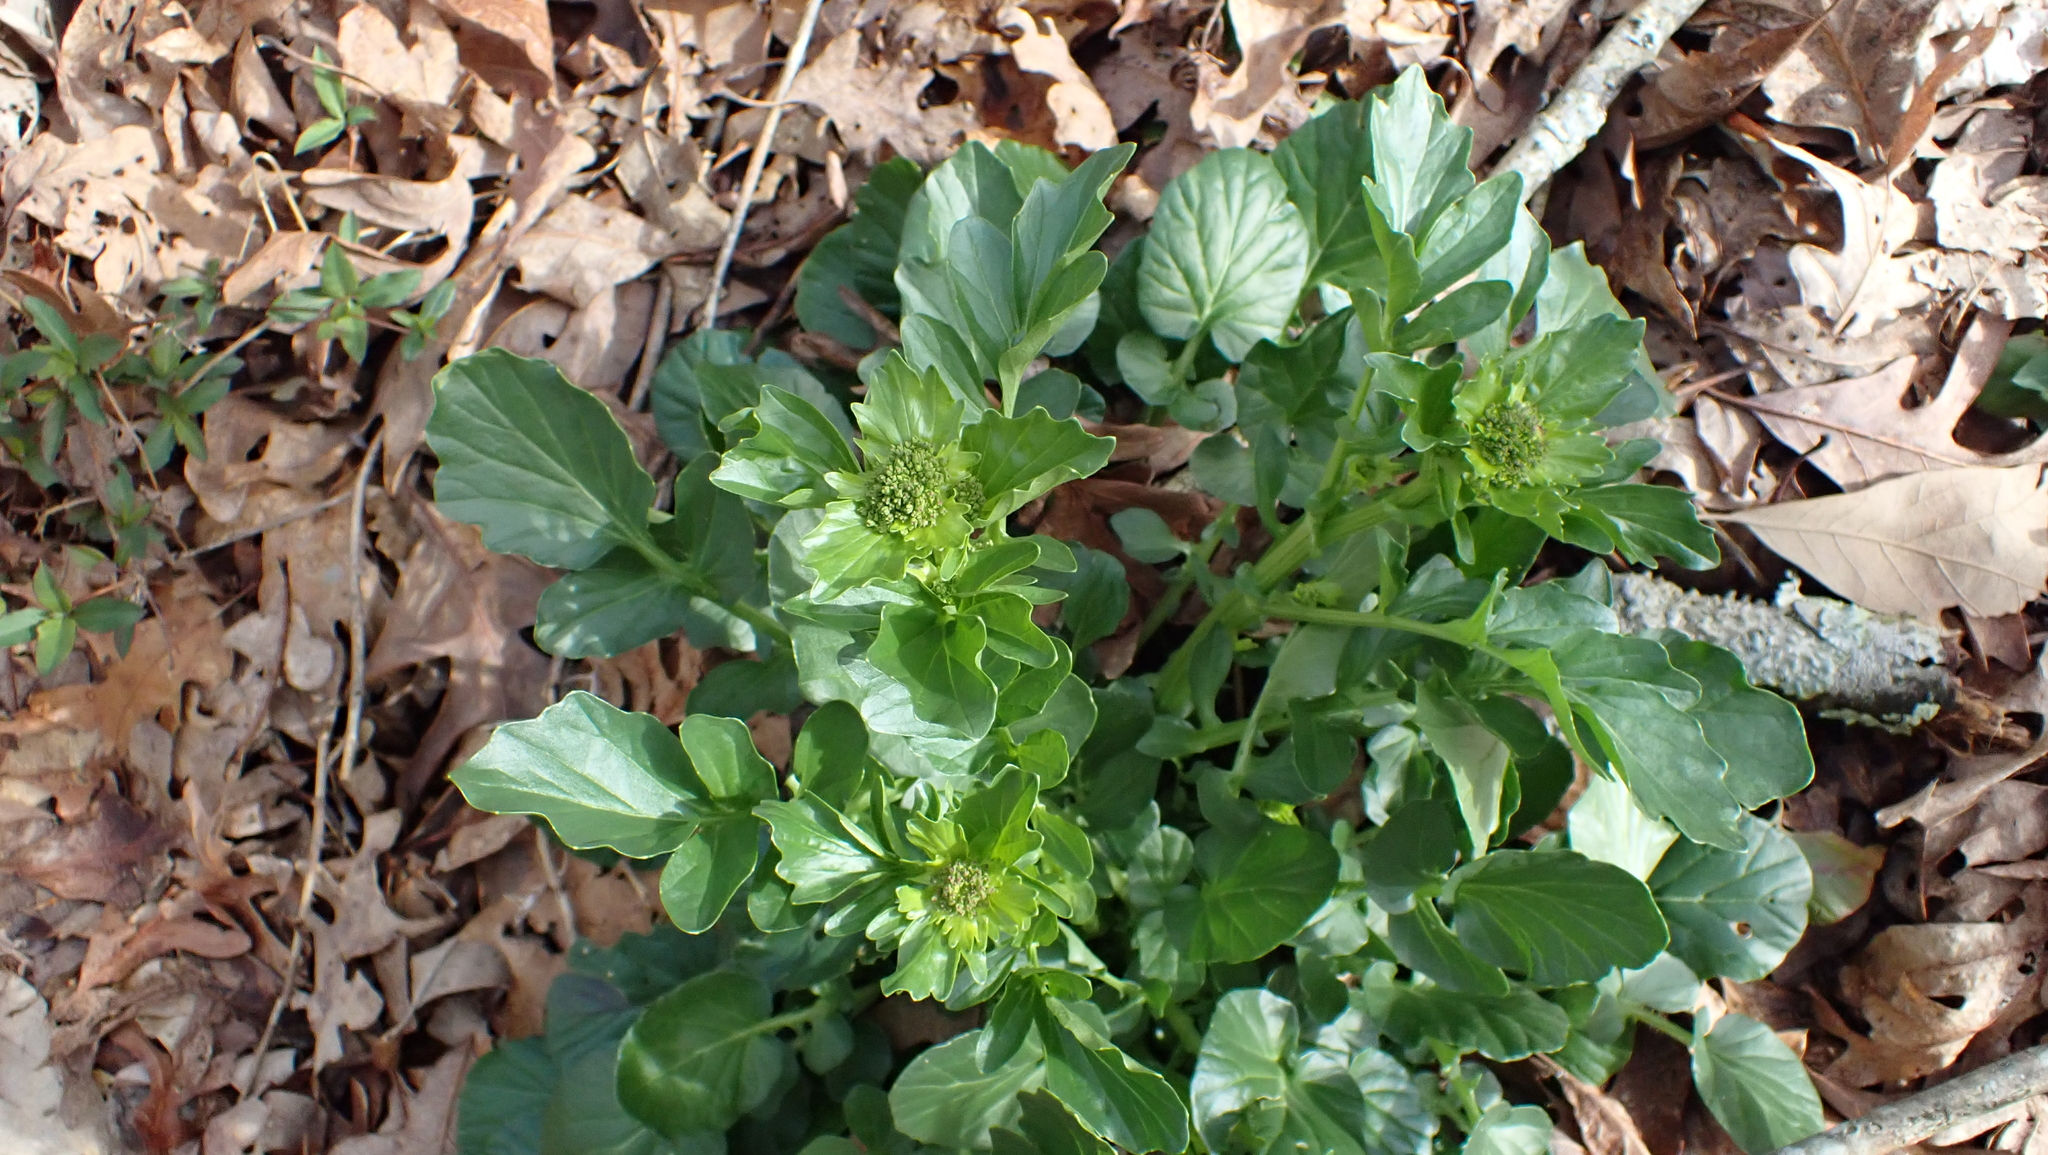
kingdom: Plantae
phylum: Tracheophyta
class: Magnoliopsida
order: Brassicales
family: Brassicaceae
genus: Barbarea
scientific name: Barbarea vulgaris
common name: Cressy-greens
